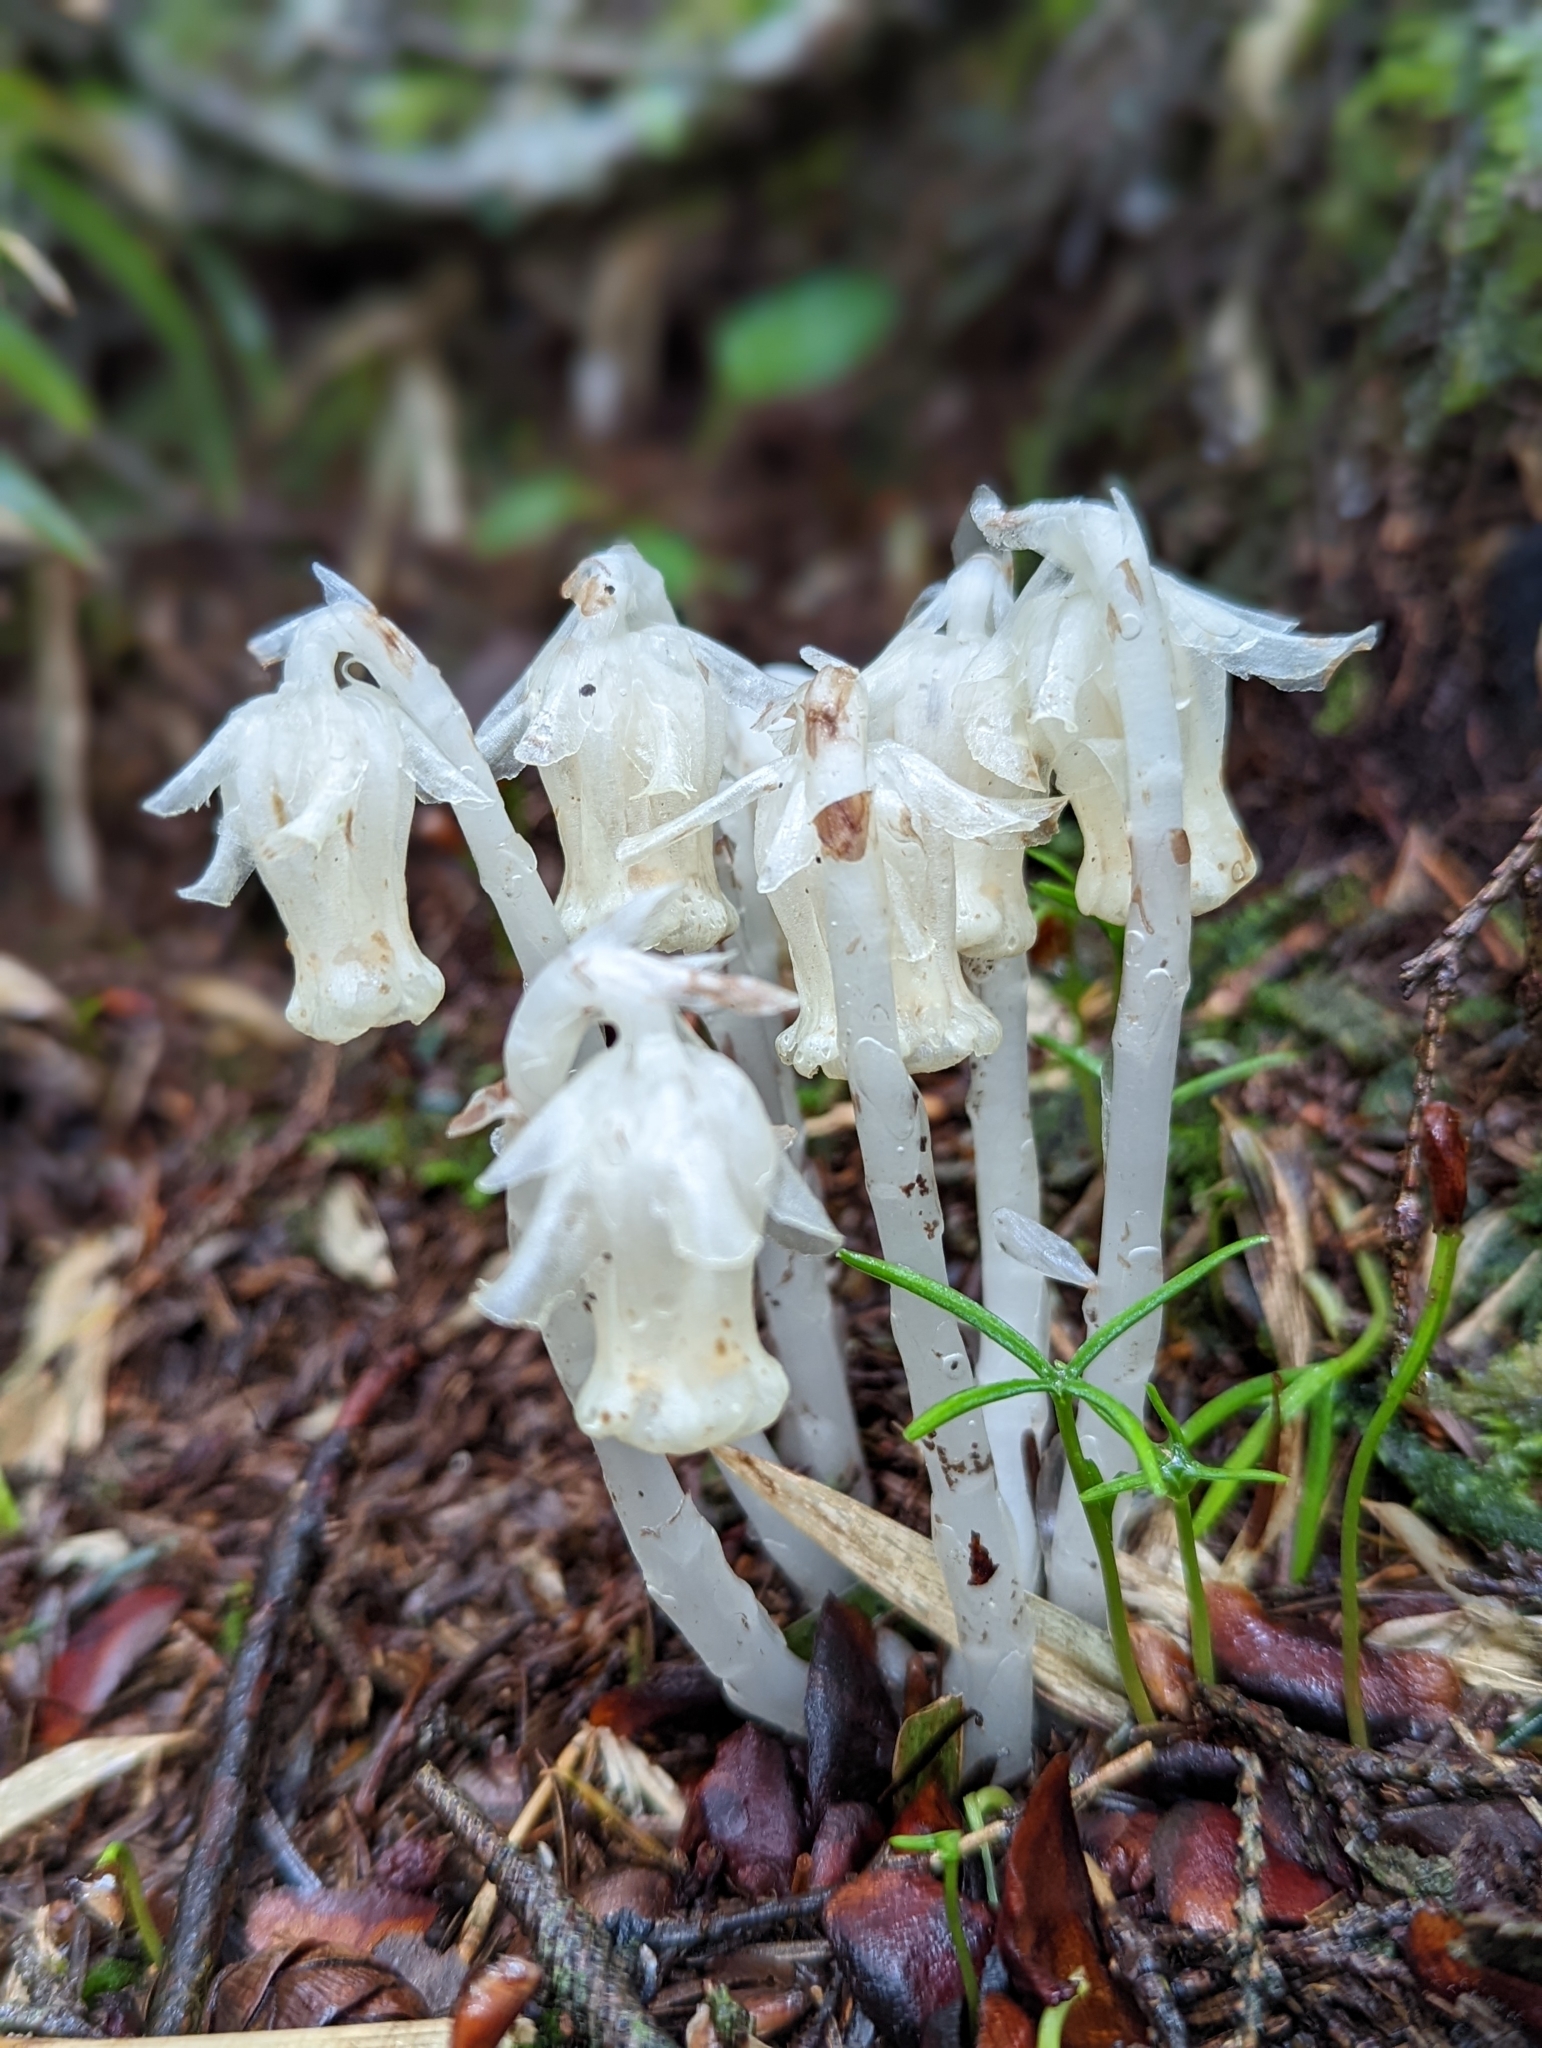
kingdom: Plantae
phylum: Tracheophyta
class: Magnoliopsida
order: Ericales
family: Ericaceae
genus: Monotropa
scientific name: Monotropa uniflora
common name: Convulsion root
